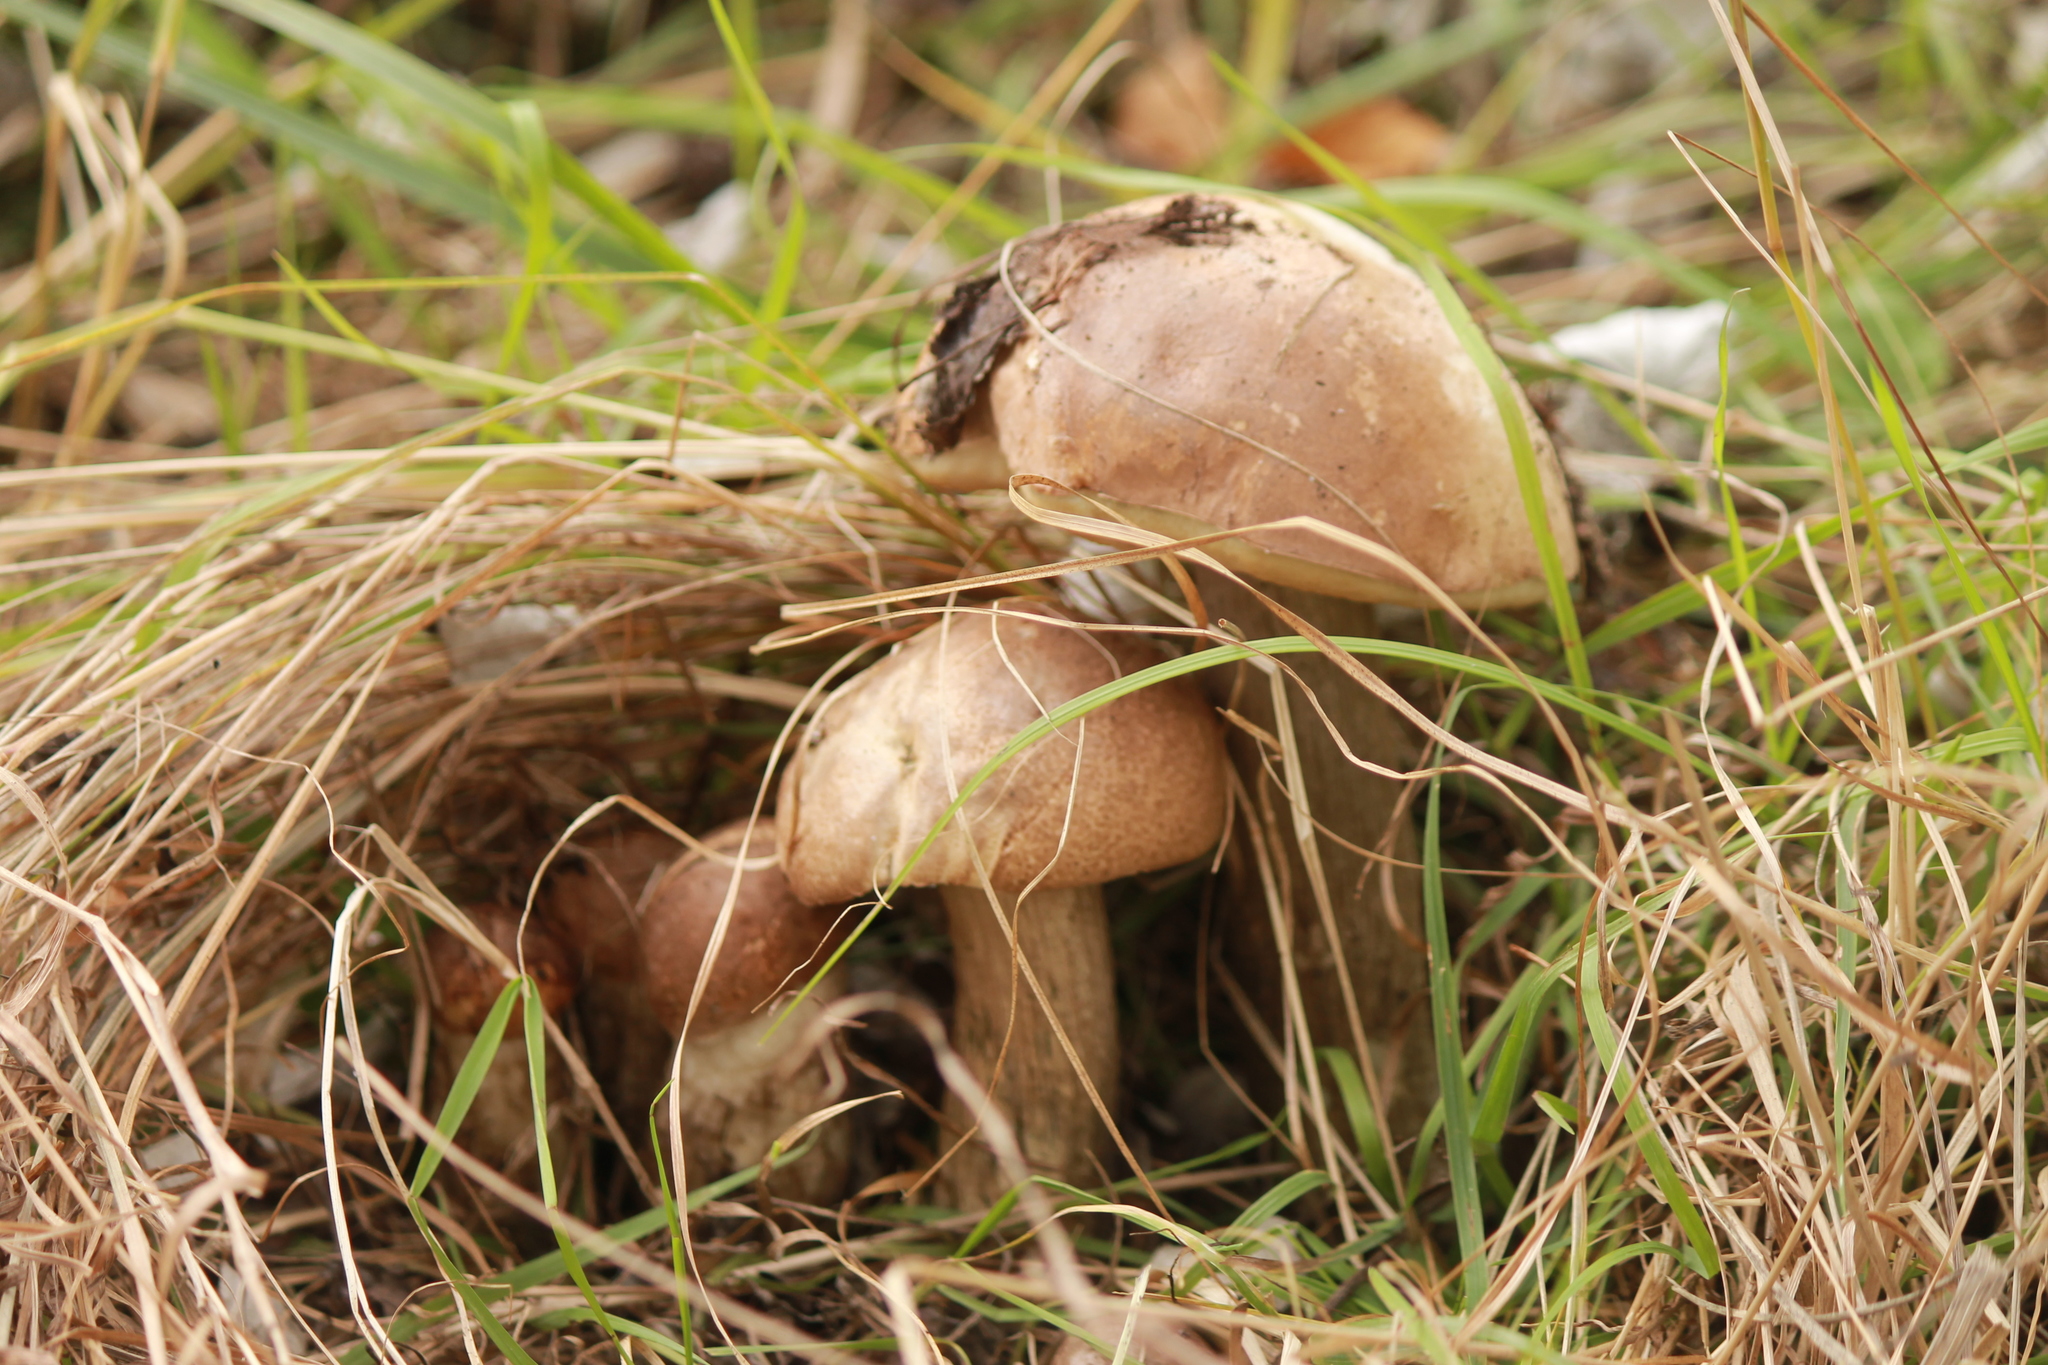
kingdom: Fungi
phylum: Basidiomycota
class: Agaricomycetes
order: Boletales
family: Boletaceae
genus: Leccinum
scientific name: Leccinum scabrum
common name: Blushing bolete
